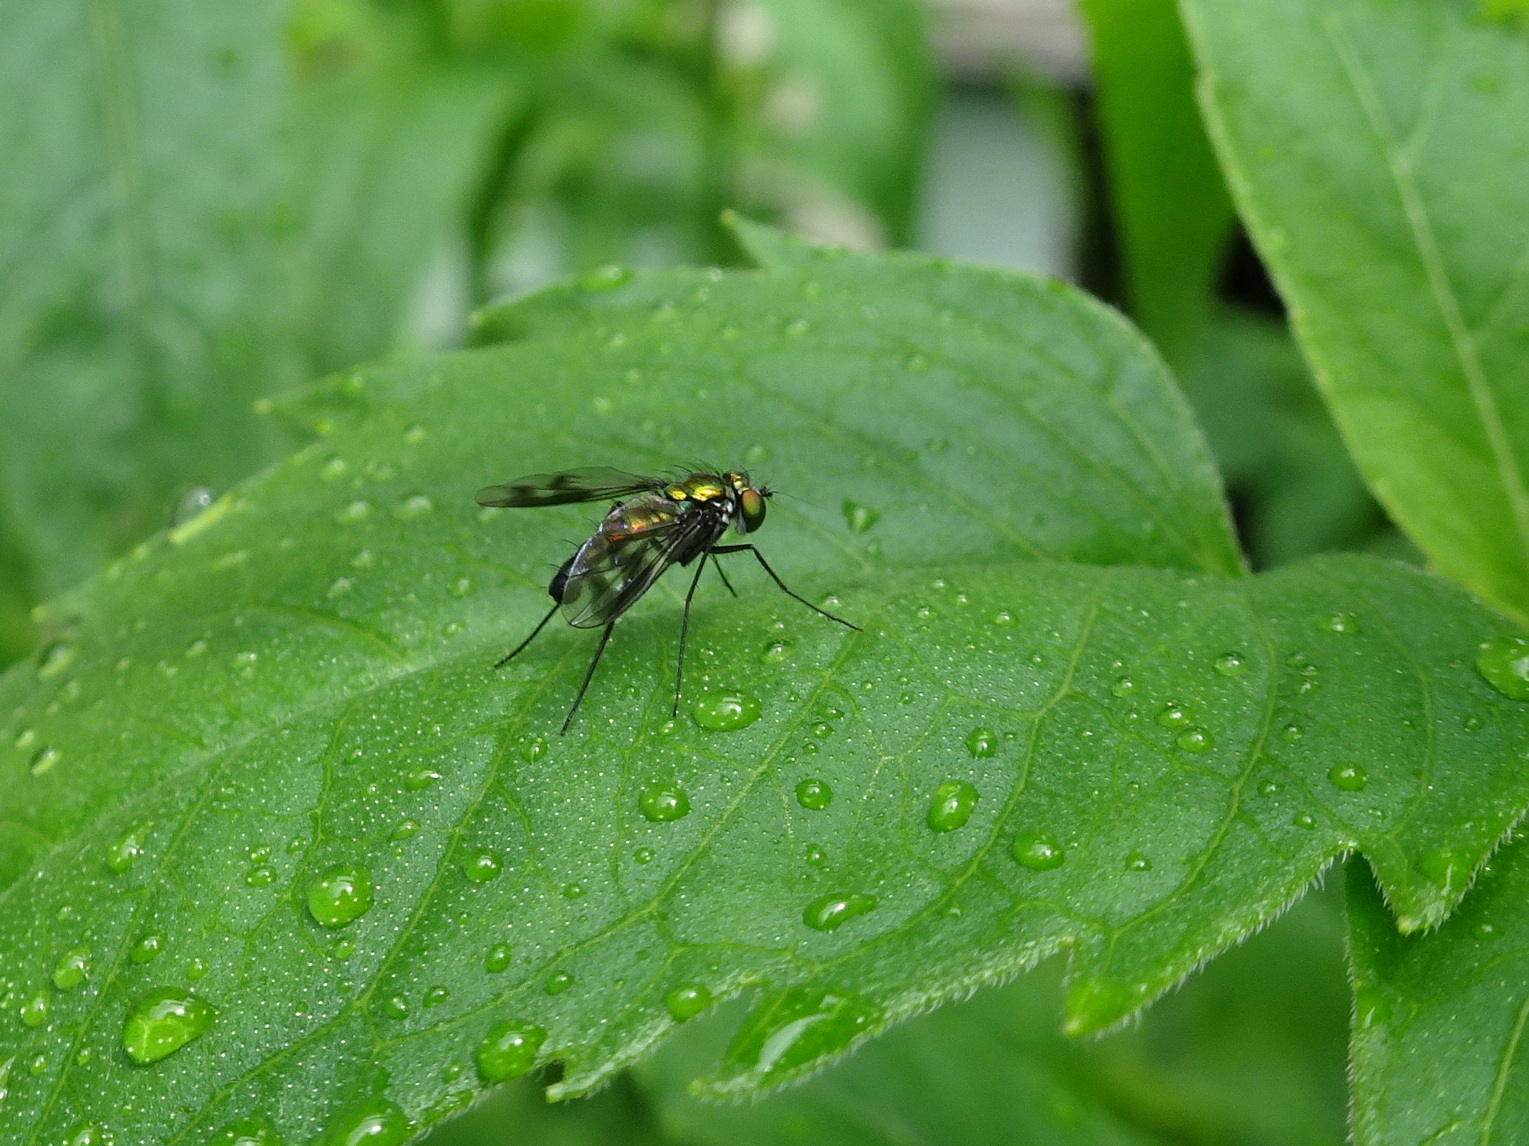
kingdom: Animalia
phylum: Arthropoda
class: Insecta
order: Diptera
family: Dolichopodidae
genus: Condylostylus
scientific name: Condylostylus patibulatus
